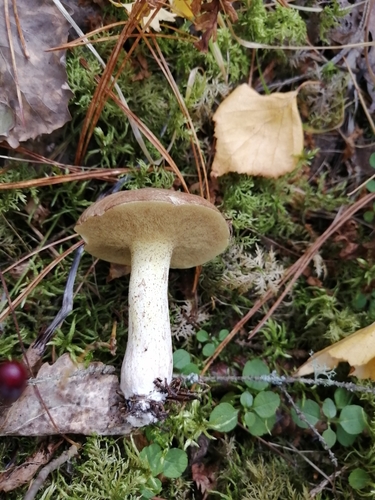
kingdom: Fungi
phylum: Basidiomycota
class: Agaricomycetes
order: Boletales
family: Suillaceae
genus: Suillus
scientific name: Suillus placidus
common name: Slippery white bolete
